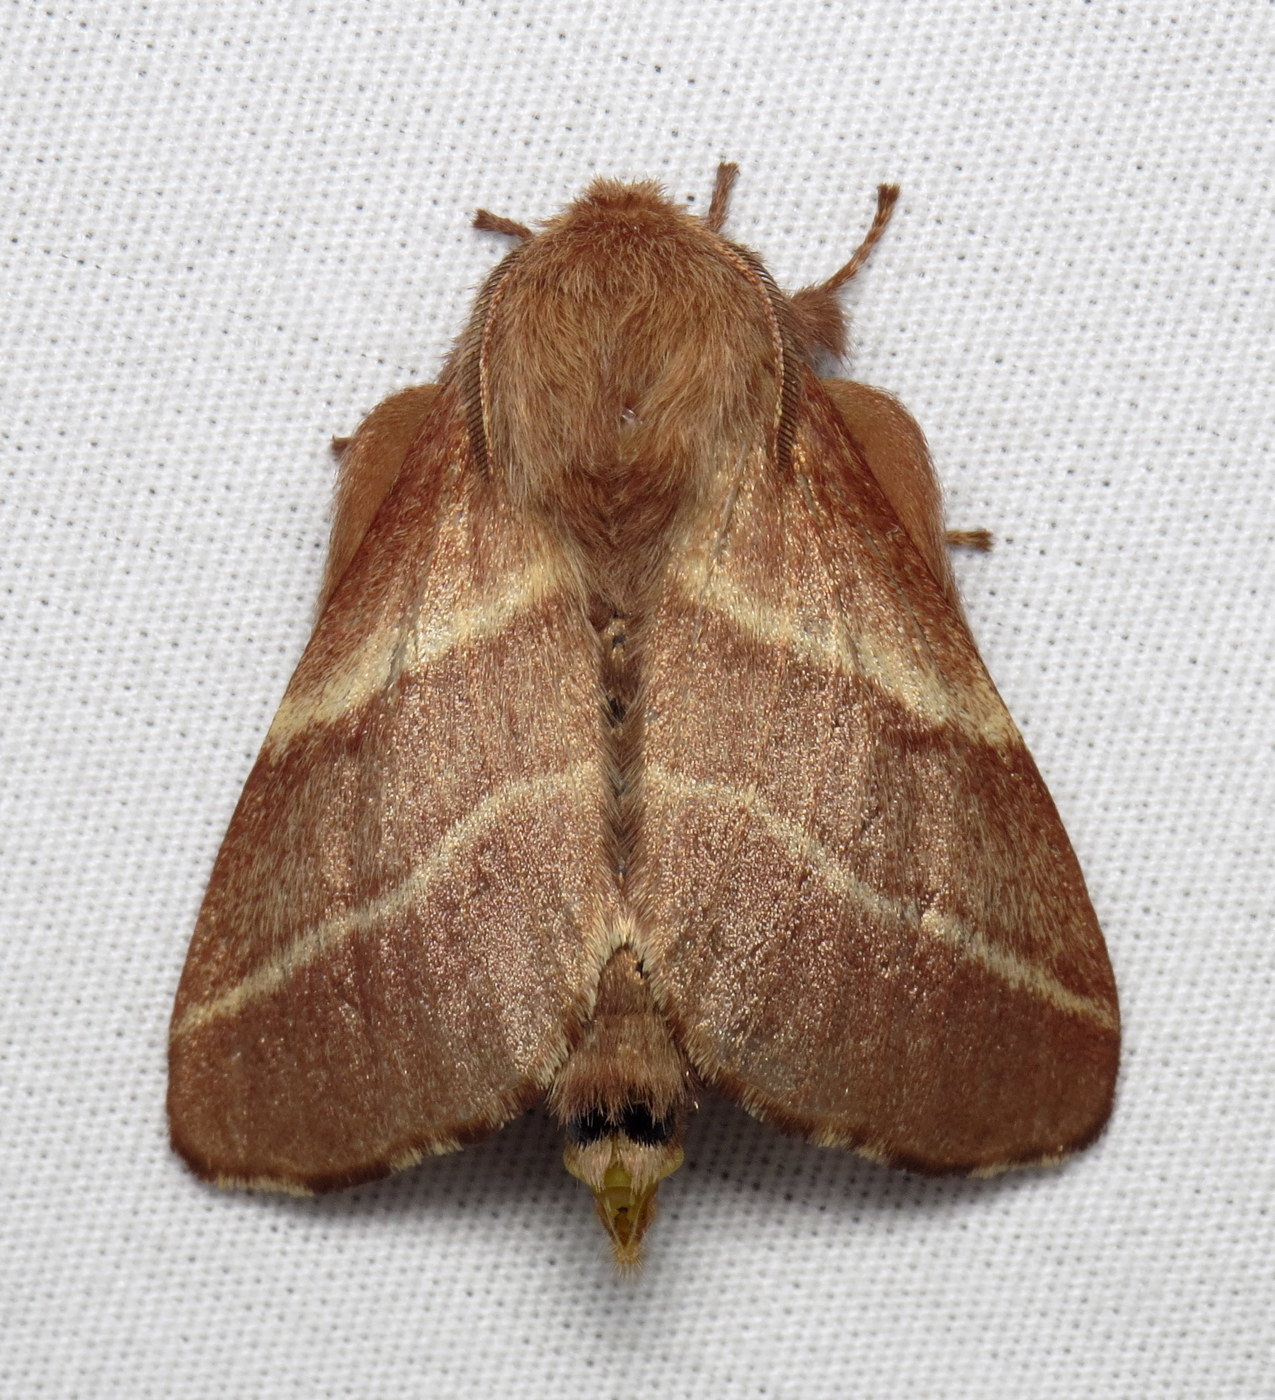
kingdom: Animalia
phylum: Arthropoda
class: Insecta
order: Lepidoptera
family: Lasiocampidae
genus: Malacosoma
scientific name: Malacosoma americana
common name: Eastern tent caterpillar moth
